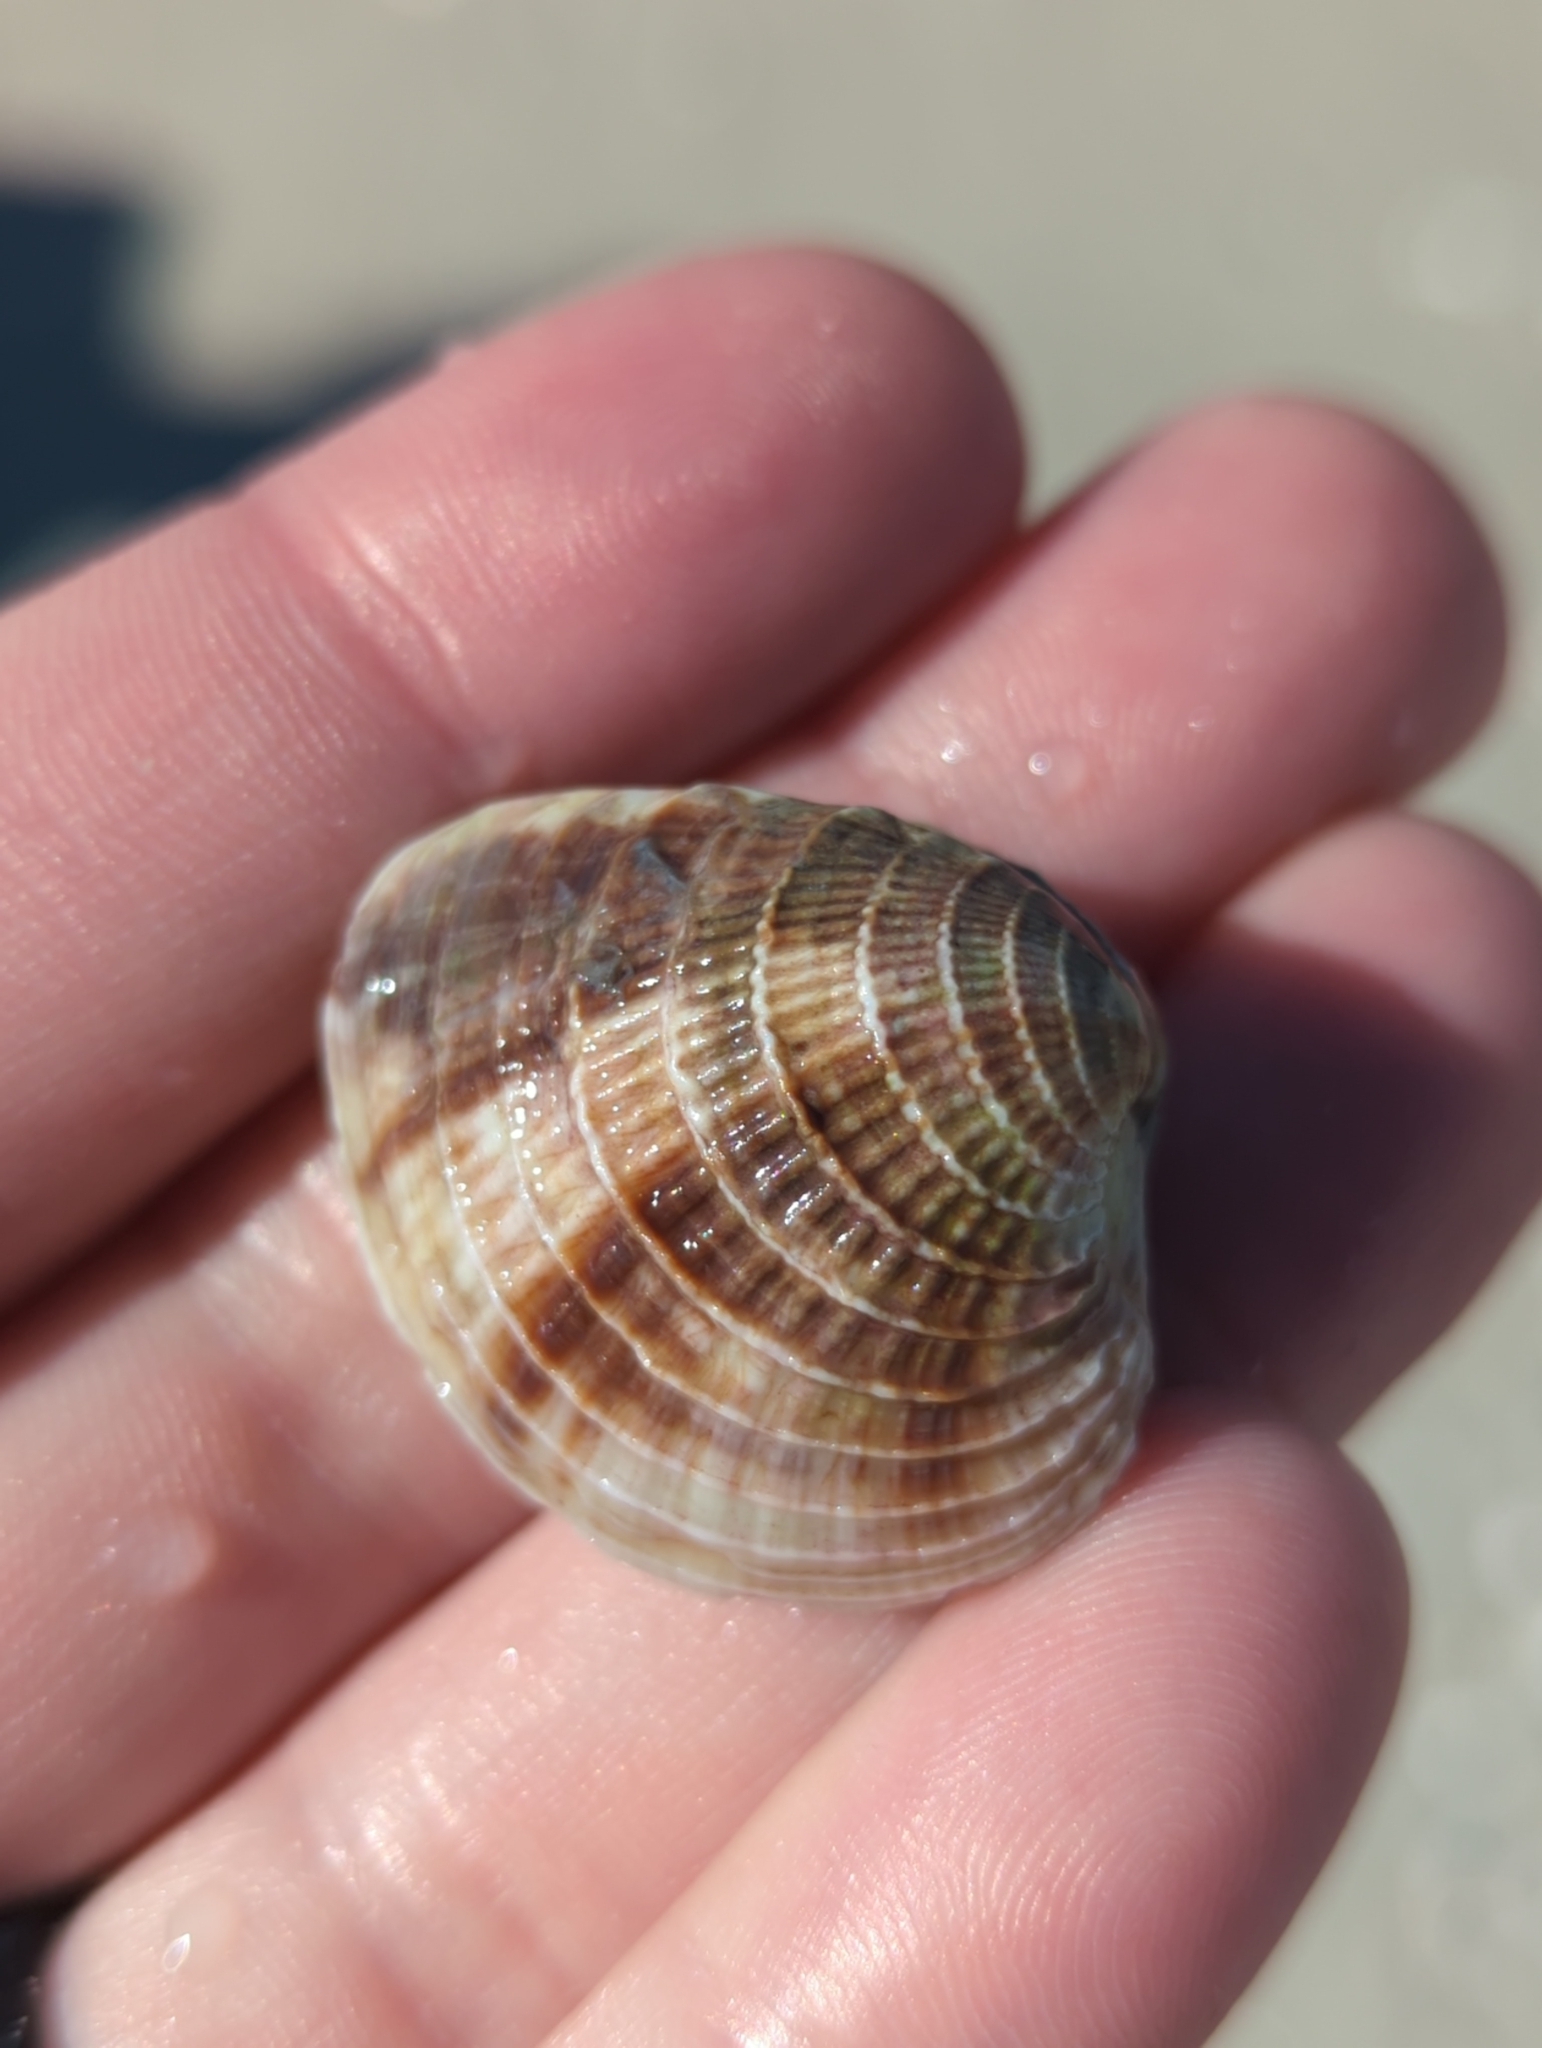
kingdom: Animalia
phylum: Mollusca
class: Bivalvia
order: Venerida
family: Veneridae
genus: Chione
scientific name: Chione elevata
